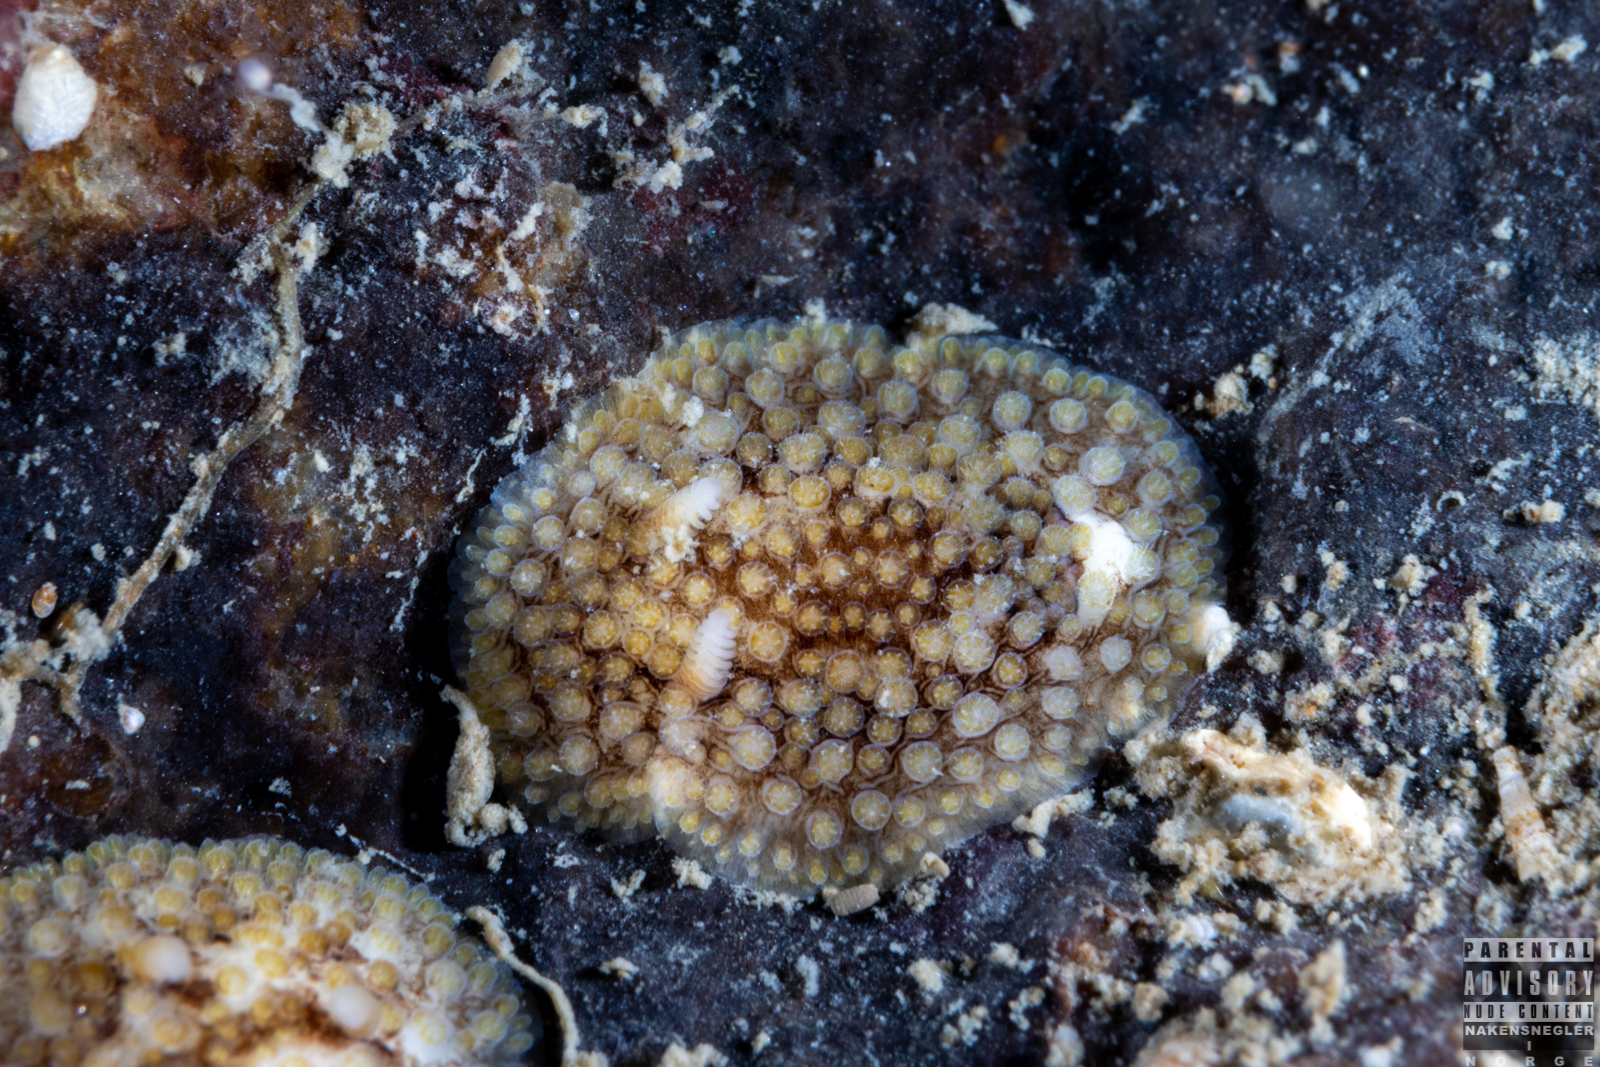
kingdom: Animalia
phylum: Mollusca
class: Gastropoda
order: Nudibranchia
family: Onchidorididae
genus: Onchidoris
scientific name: Onchidoris bilamellata
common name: Barnacle-eating onchidoris
